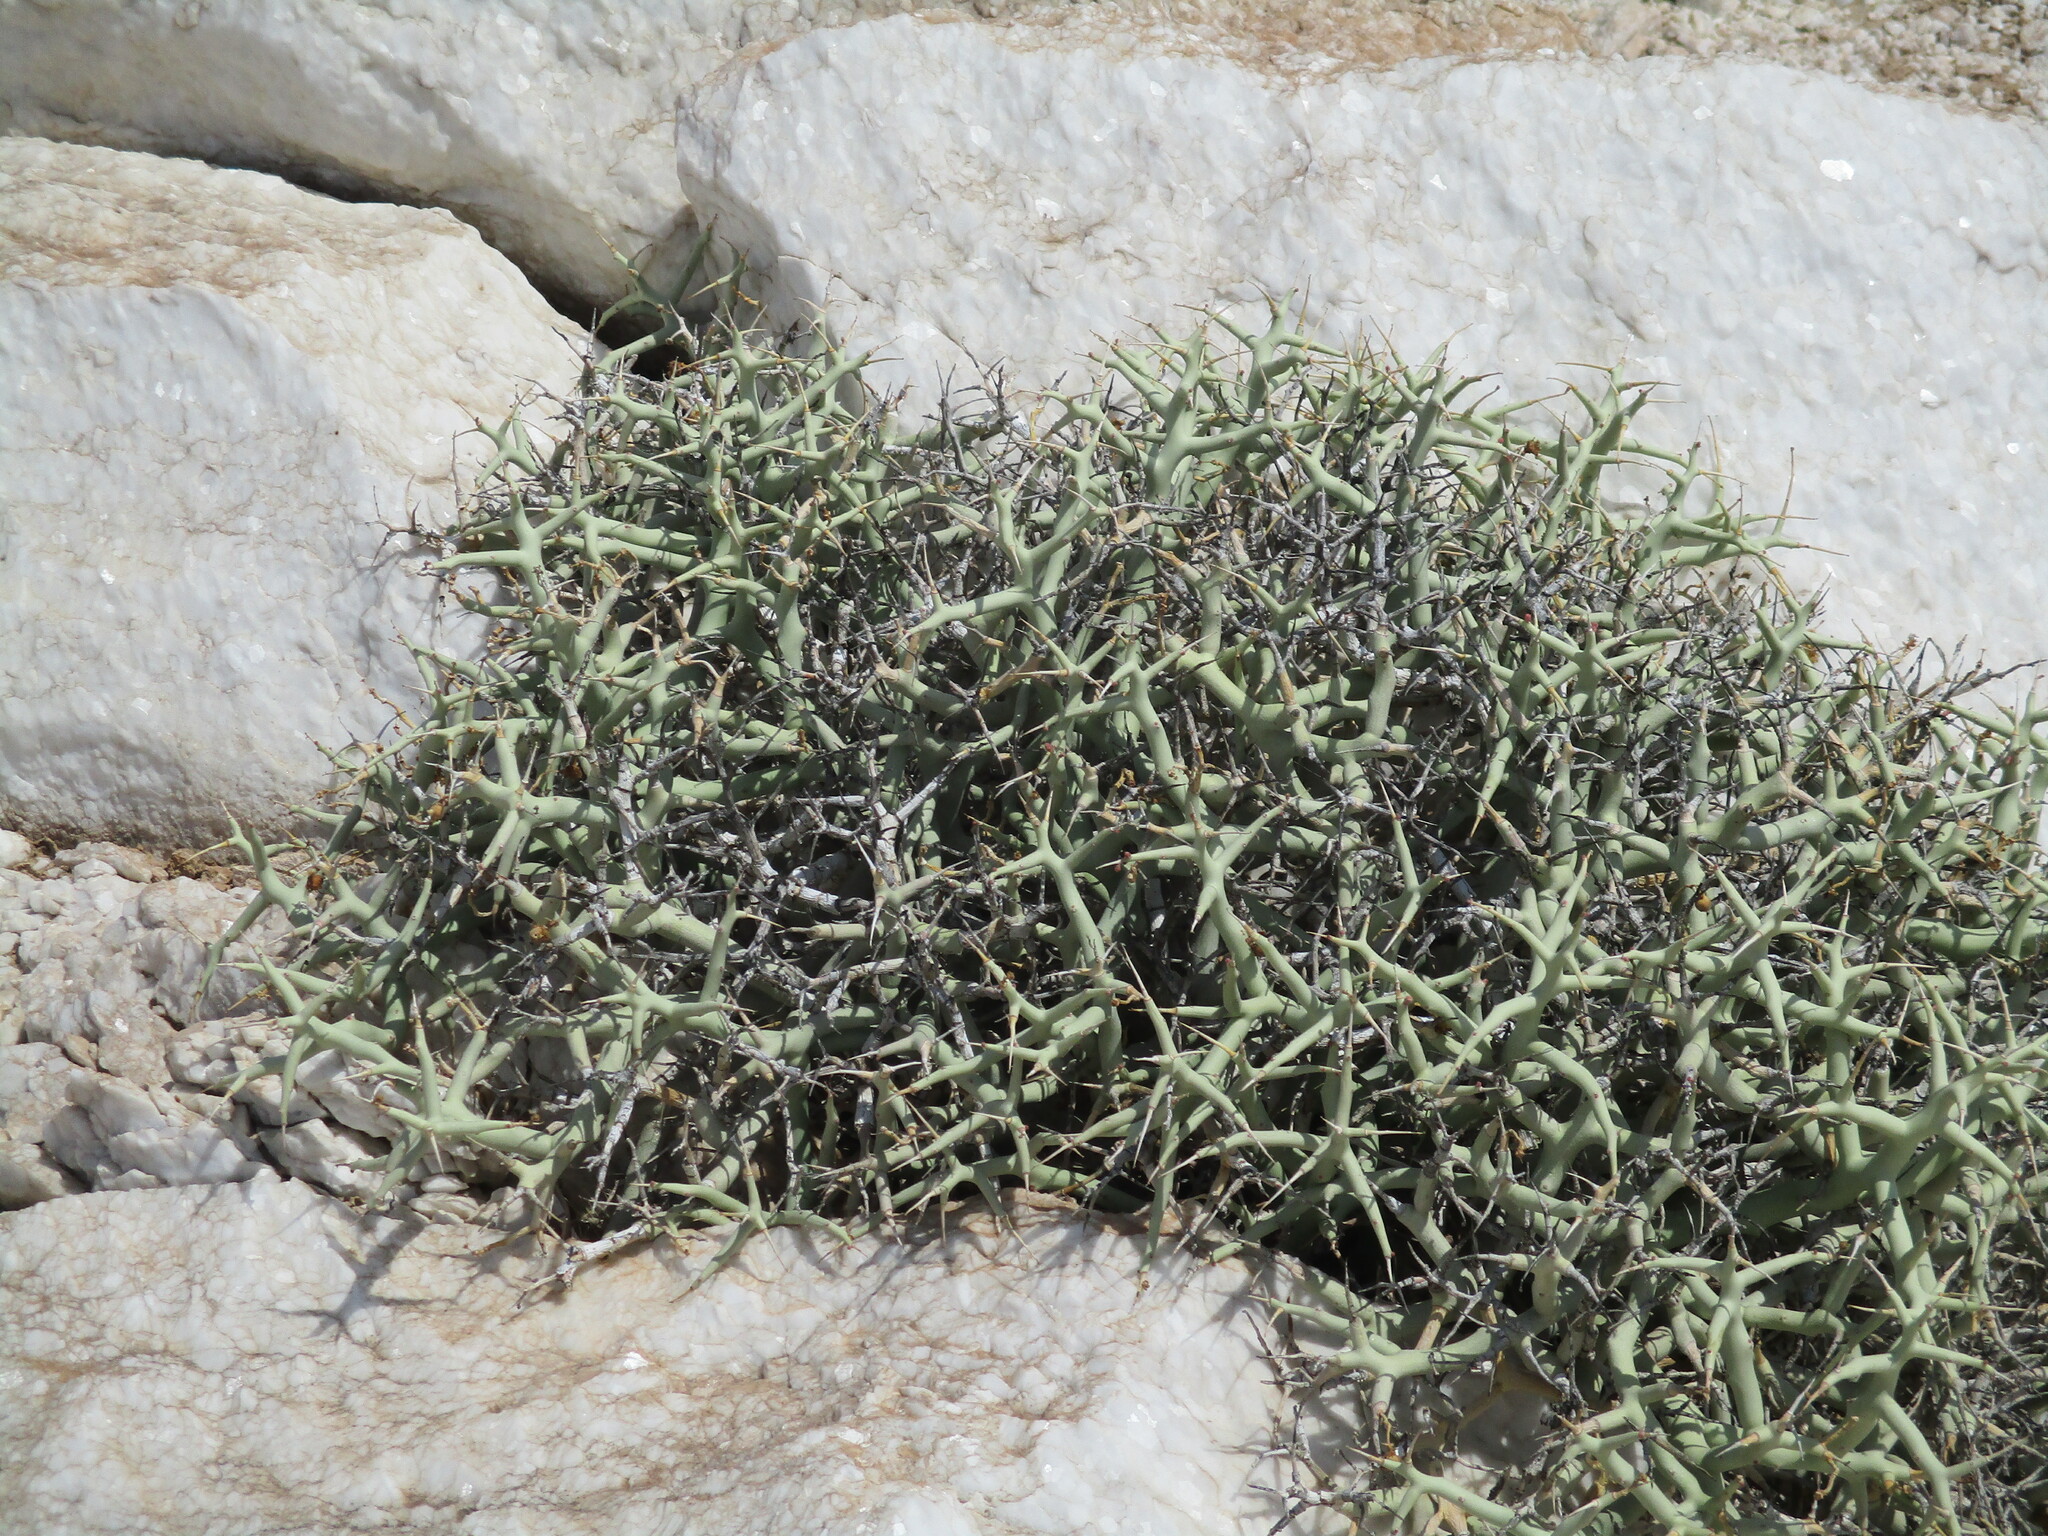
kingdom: Plantae
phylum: Tracheophyta
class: Magnoliopsida
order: Malpighiales
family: Euphorbiaceae
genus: Euphorbia
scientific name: Euphorbia lignosa
